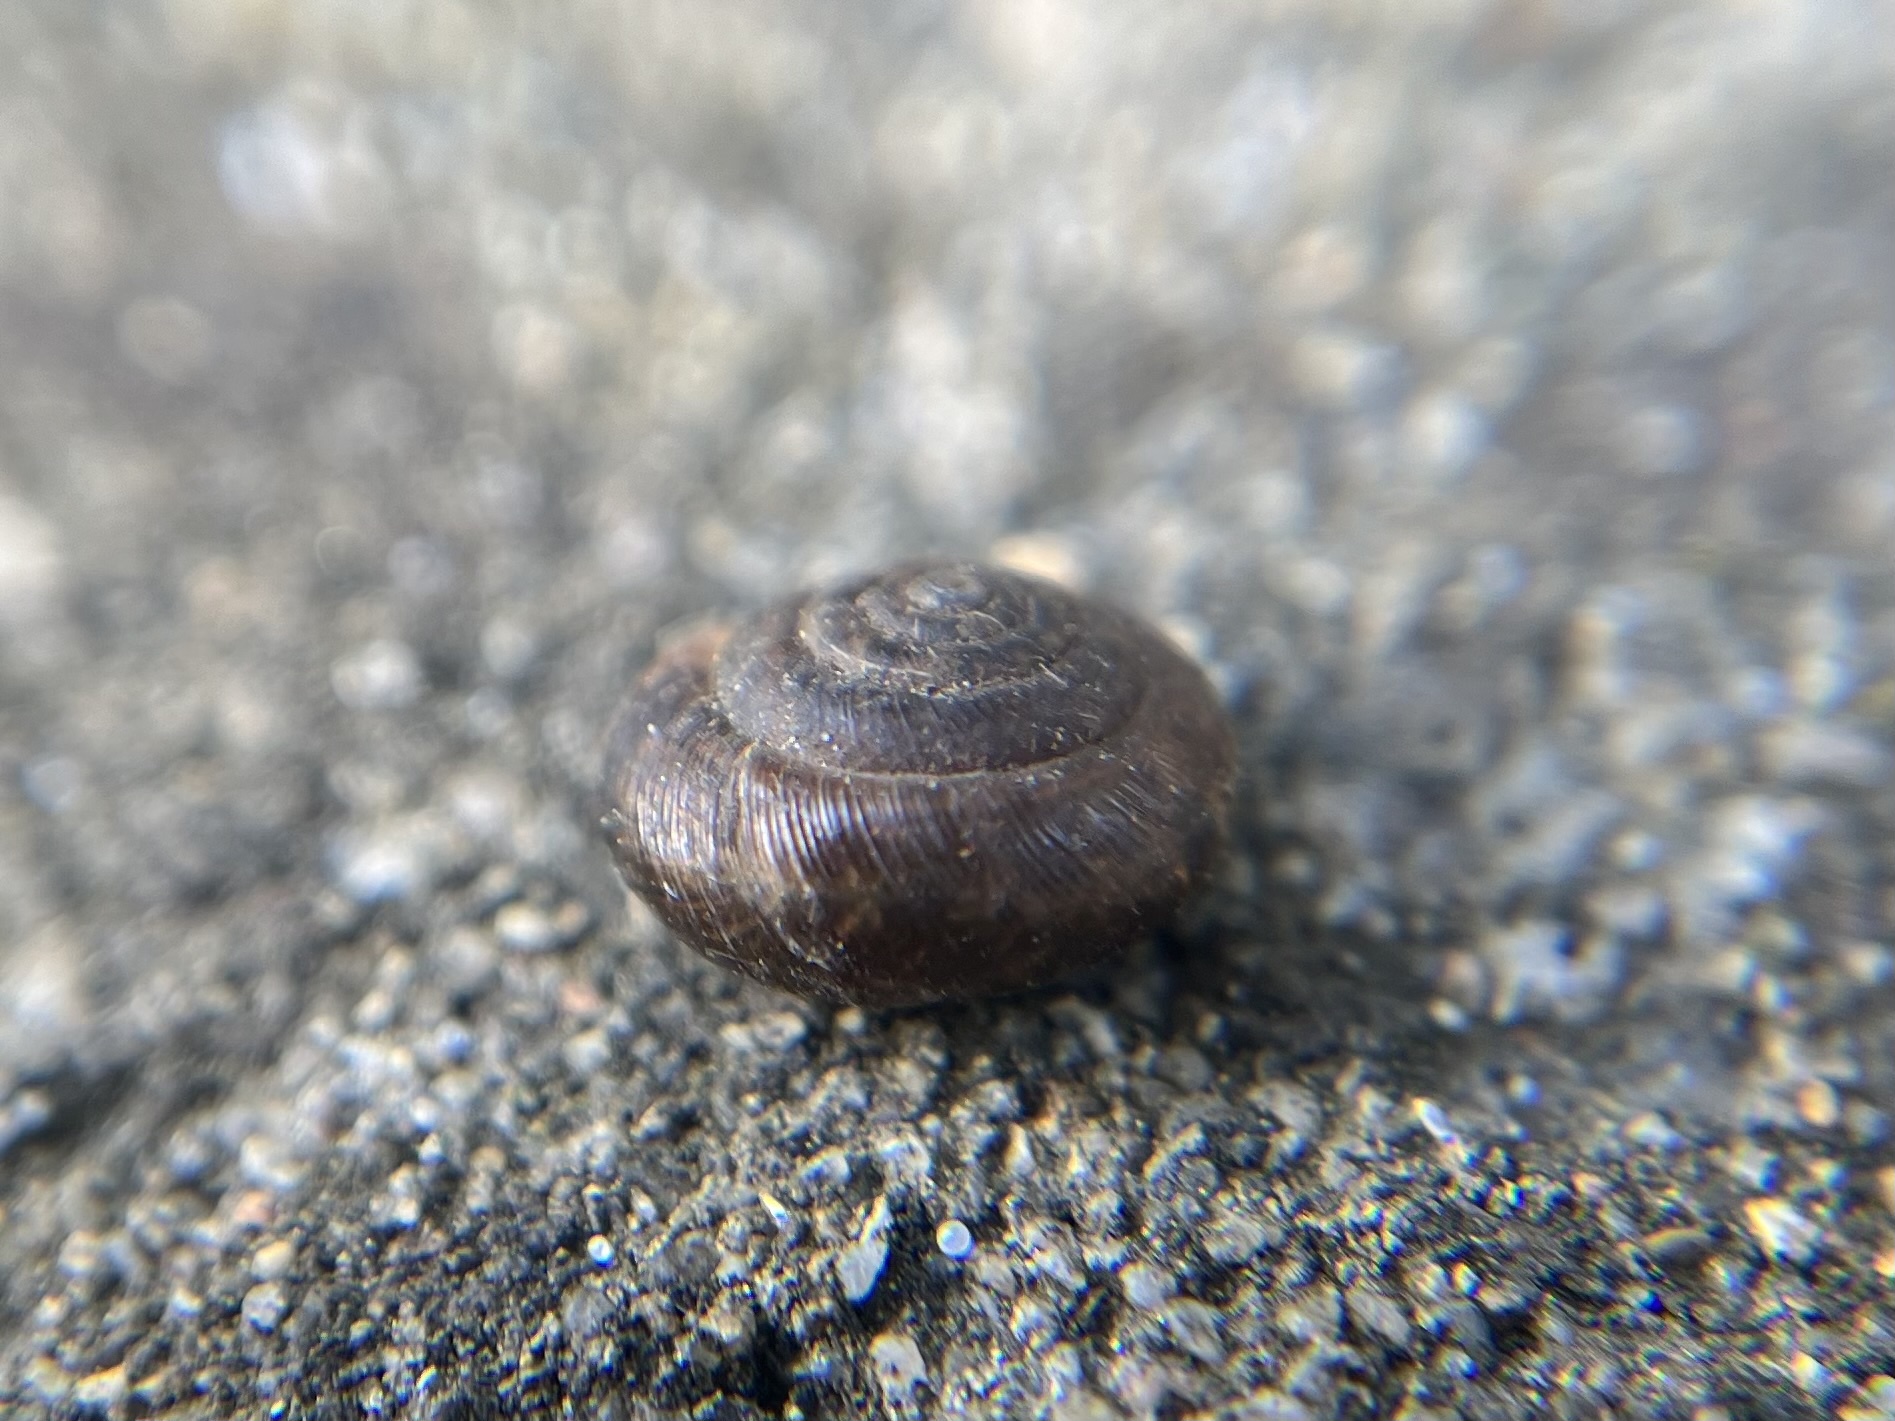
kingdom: Animalia
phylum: Mollusca
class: Gastropoda
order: Stylommatophora
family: Hygromiidae
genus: Trochulus
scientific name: Trochulus hispidus
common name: Hairy snail
